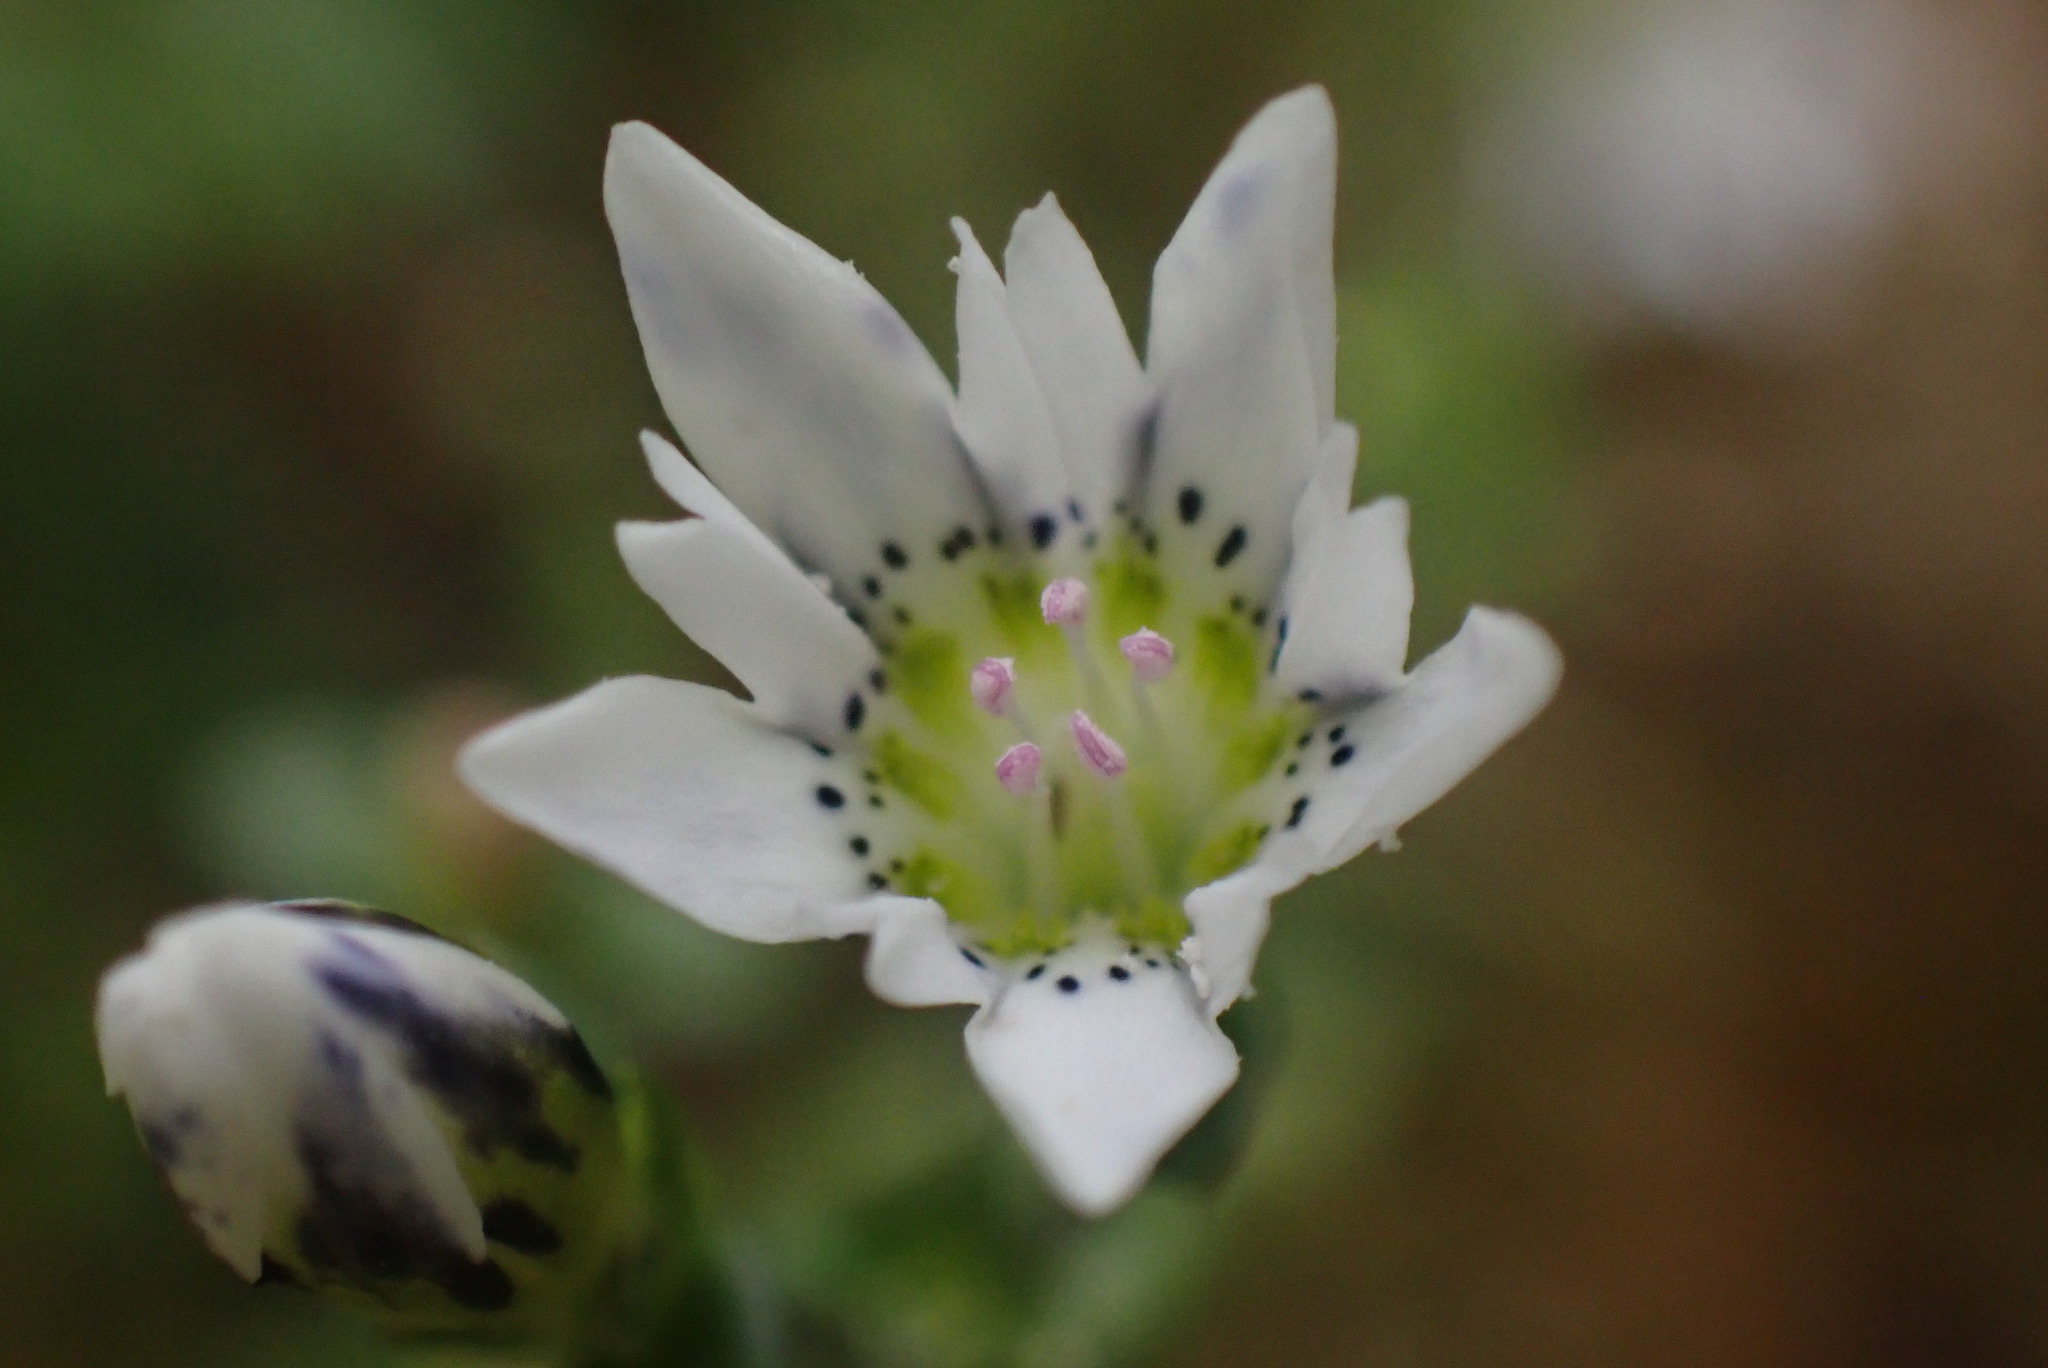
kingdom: Plantae
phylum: Tracheophyta
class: Magnoliopsida
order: Gentianales
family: Gentianaceae
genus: Gentiana
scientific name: Gentiana douglasiana
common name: Swamp gentian
